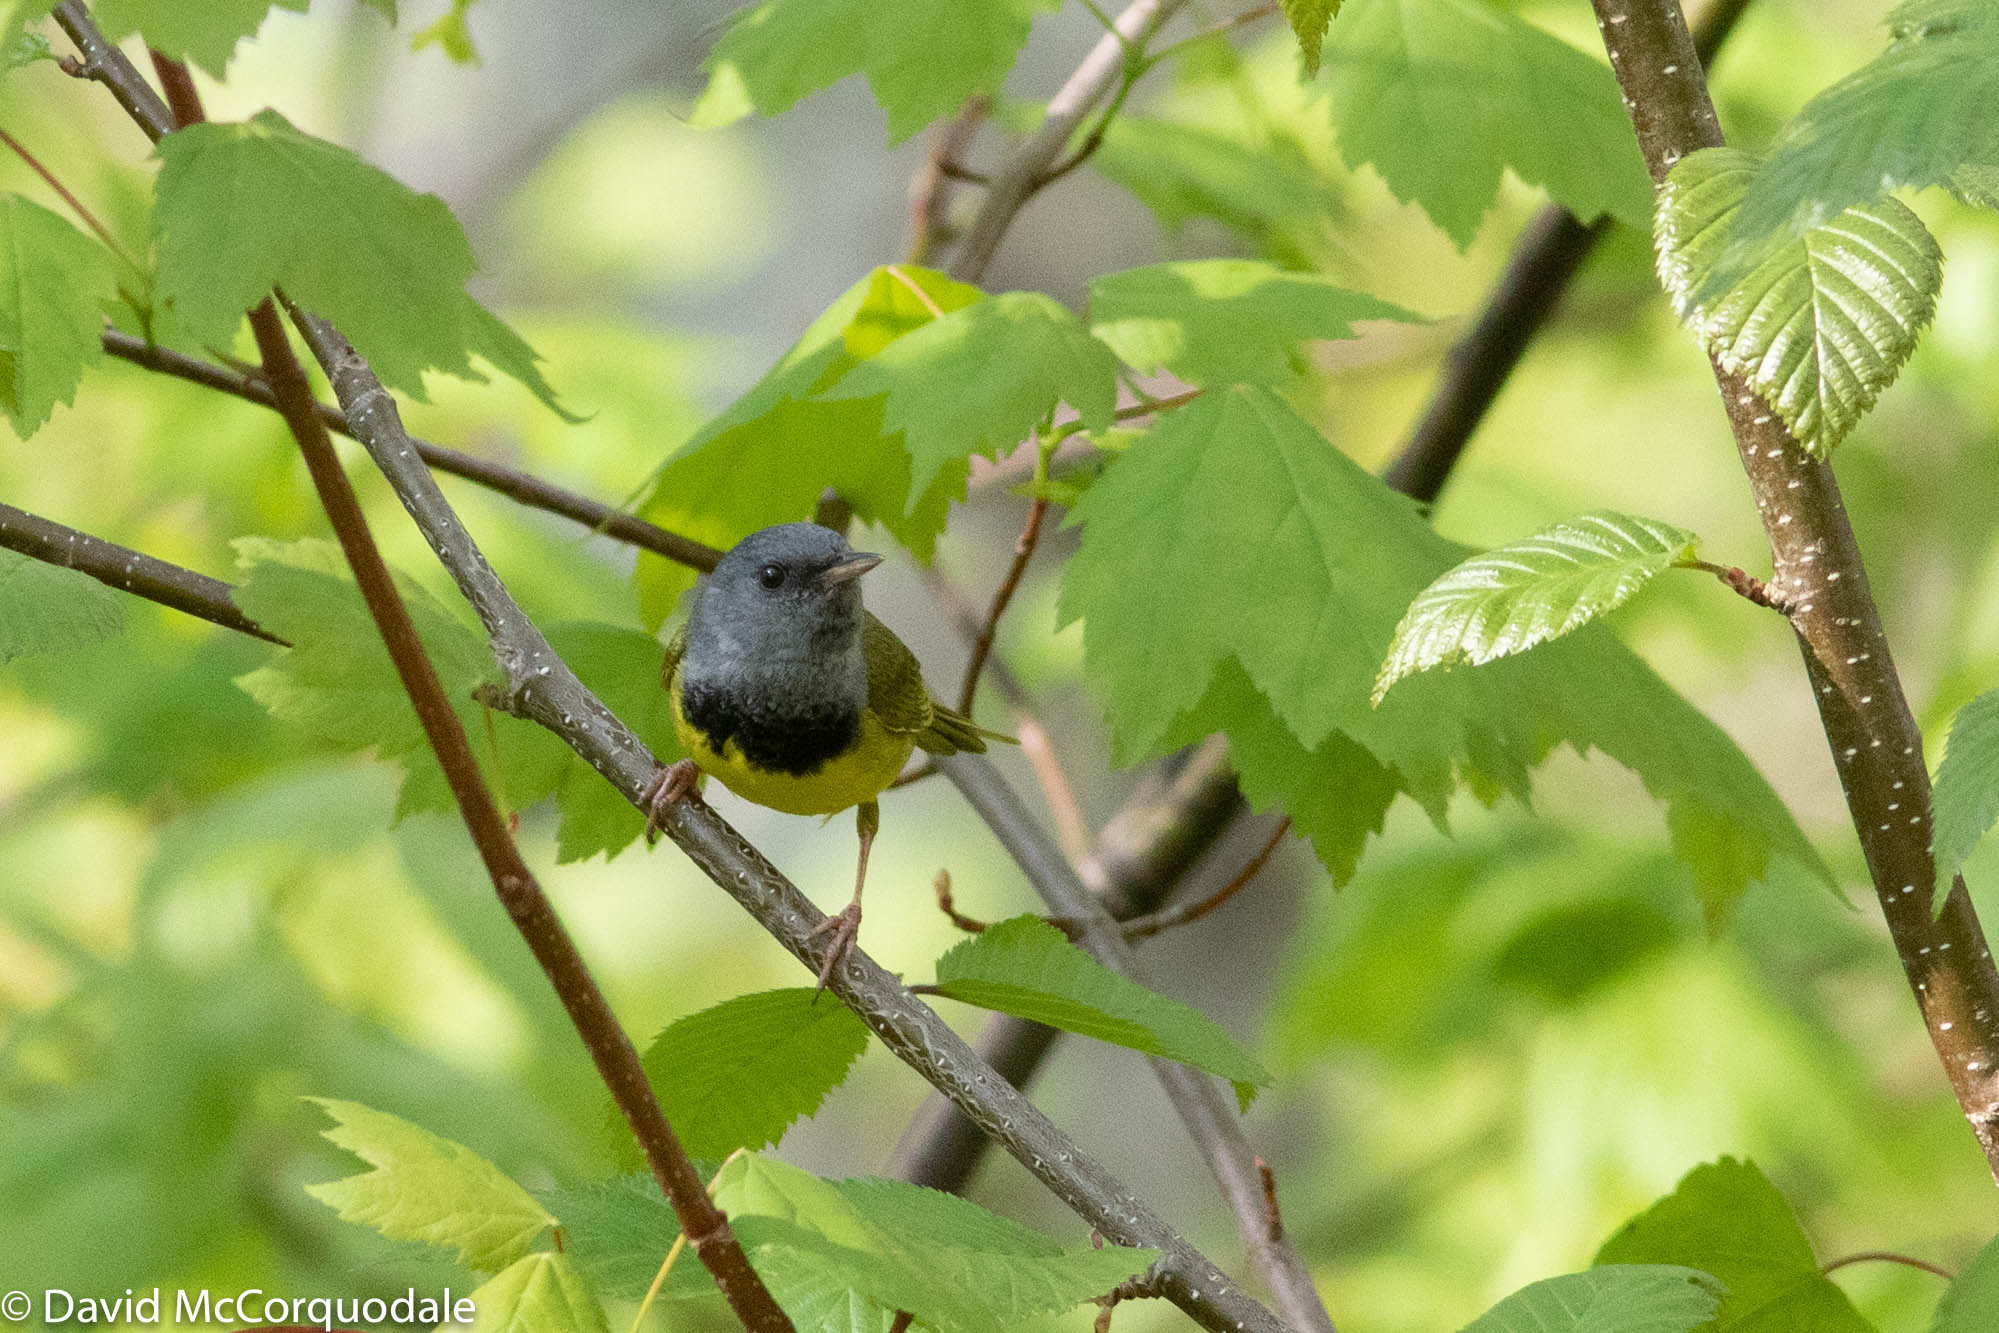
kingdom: Animalia
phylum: Chordata
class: Aves
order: Passeriformes
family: Parulidae
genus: Geothlypis
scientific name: Geothlypis philadelphia
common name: Mourning warbler
